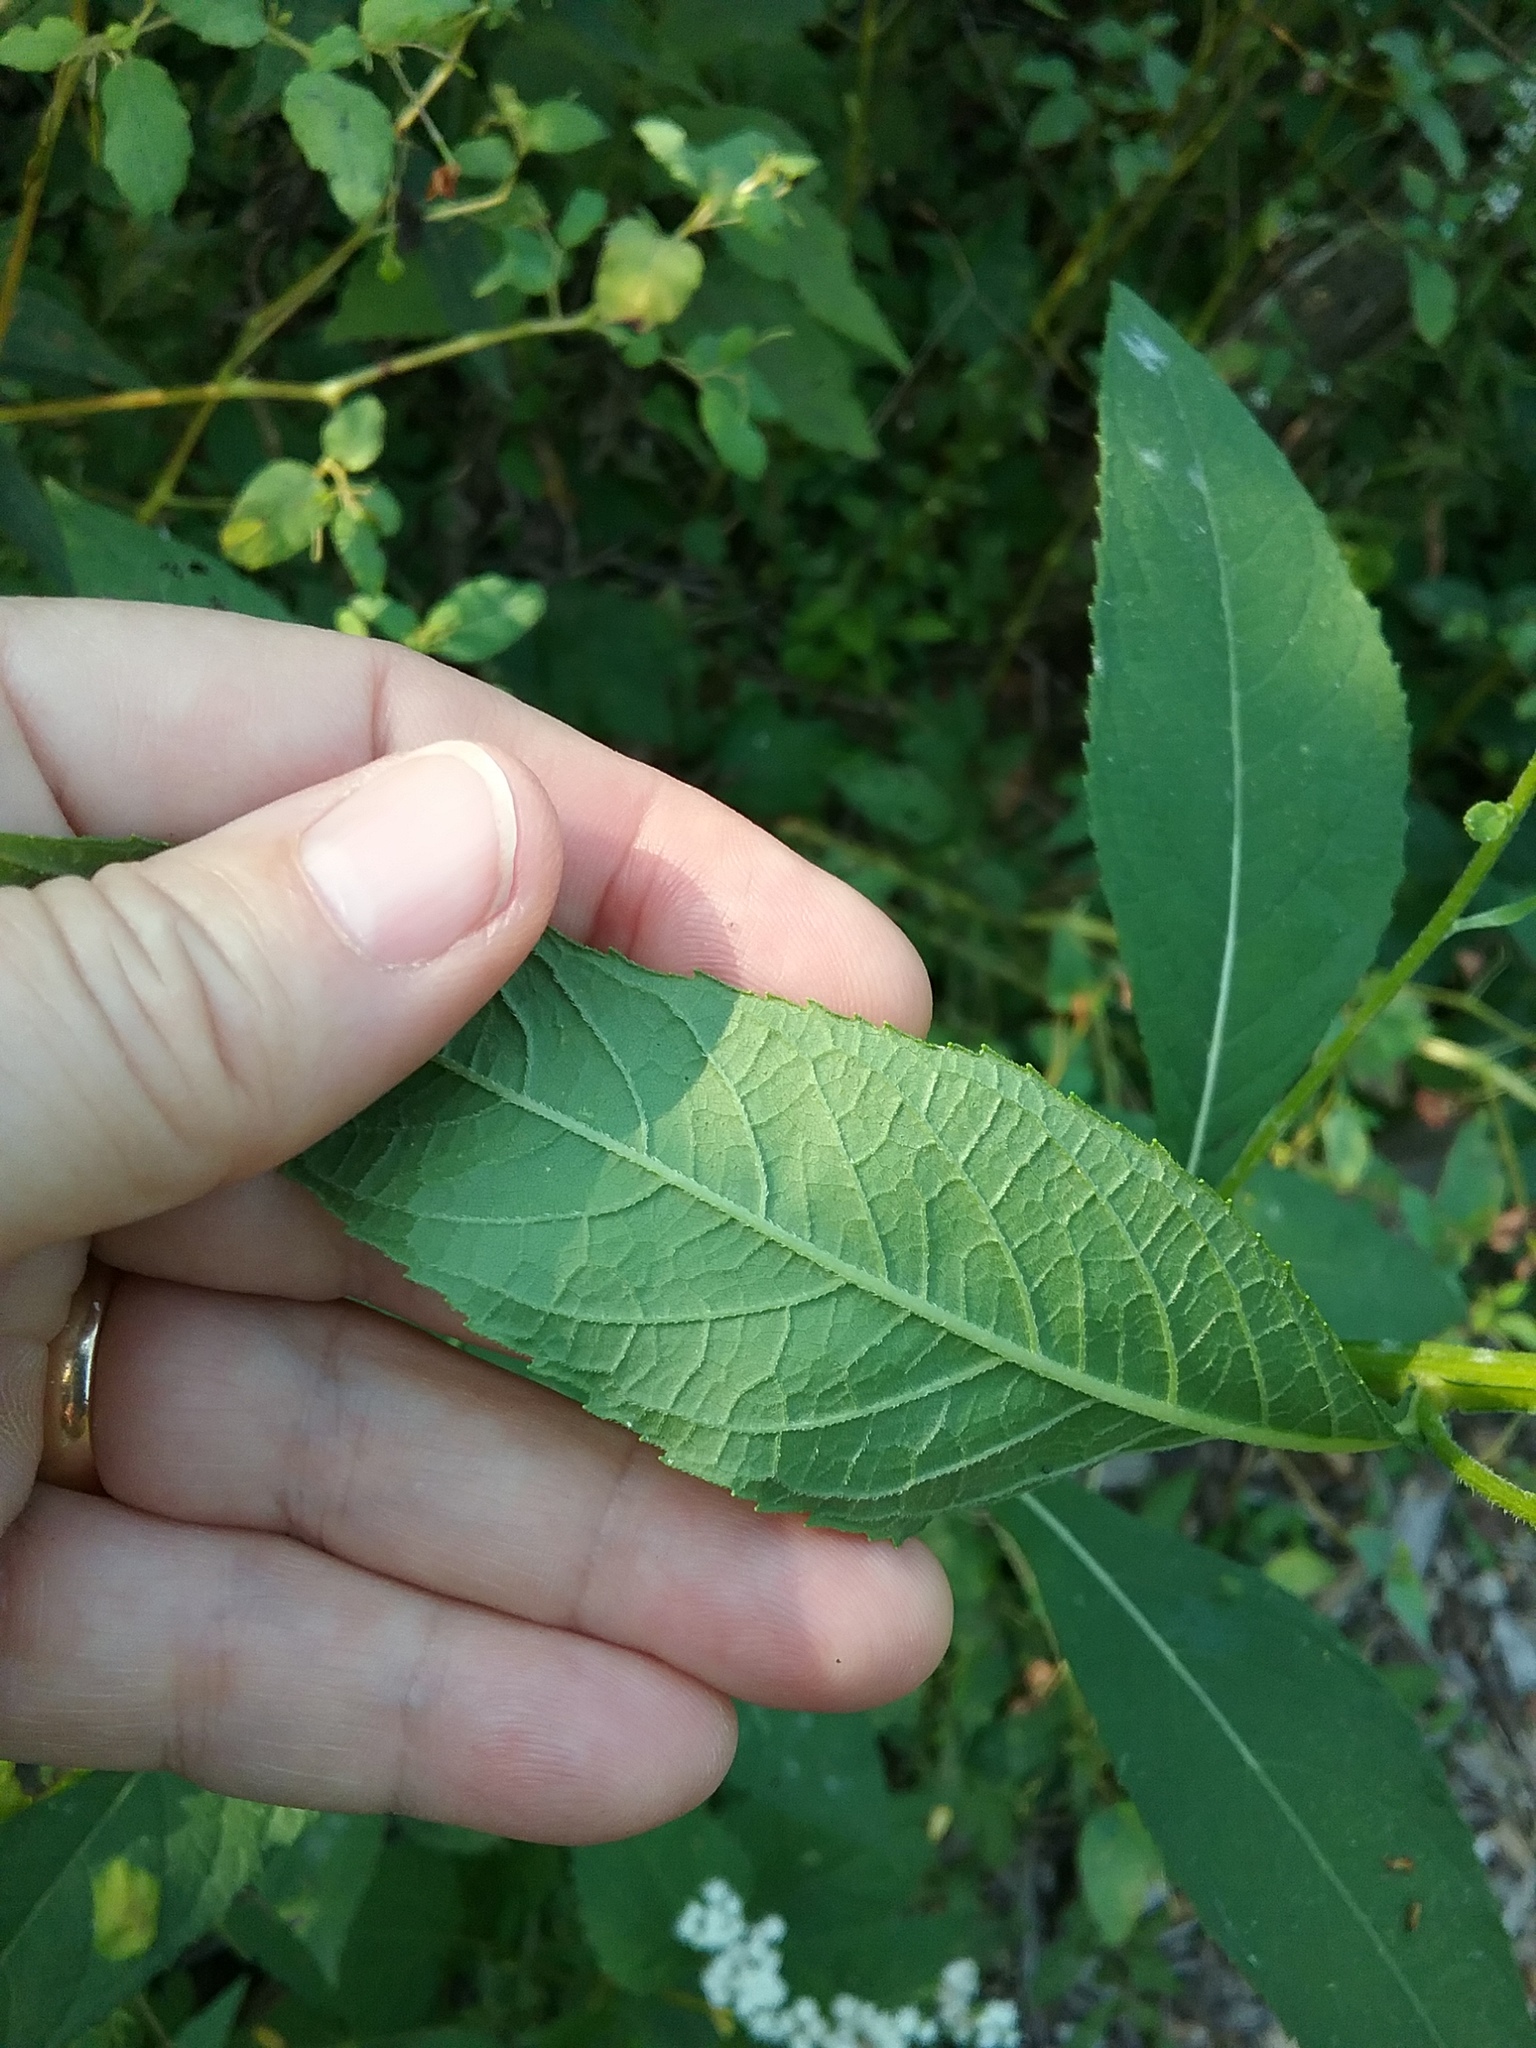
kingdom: Plantae
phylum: Tracheophyta
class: Magnoliopsida
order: Asterales
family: Asteraceae
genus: Verbesina
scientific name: Verbesina alternifolia
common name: Wingstem
